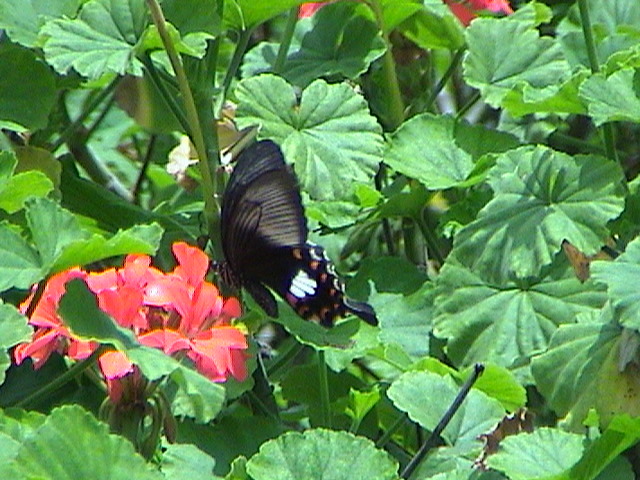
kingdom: Animalia
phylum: Arthropoda
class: Insecta
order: Lepidoptera
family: Papilionidae
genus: Papilio
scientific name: Papilio polytes
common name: Common mormon
